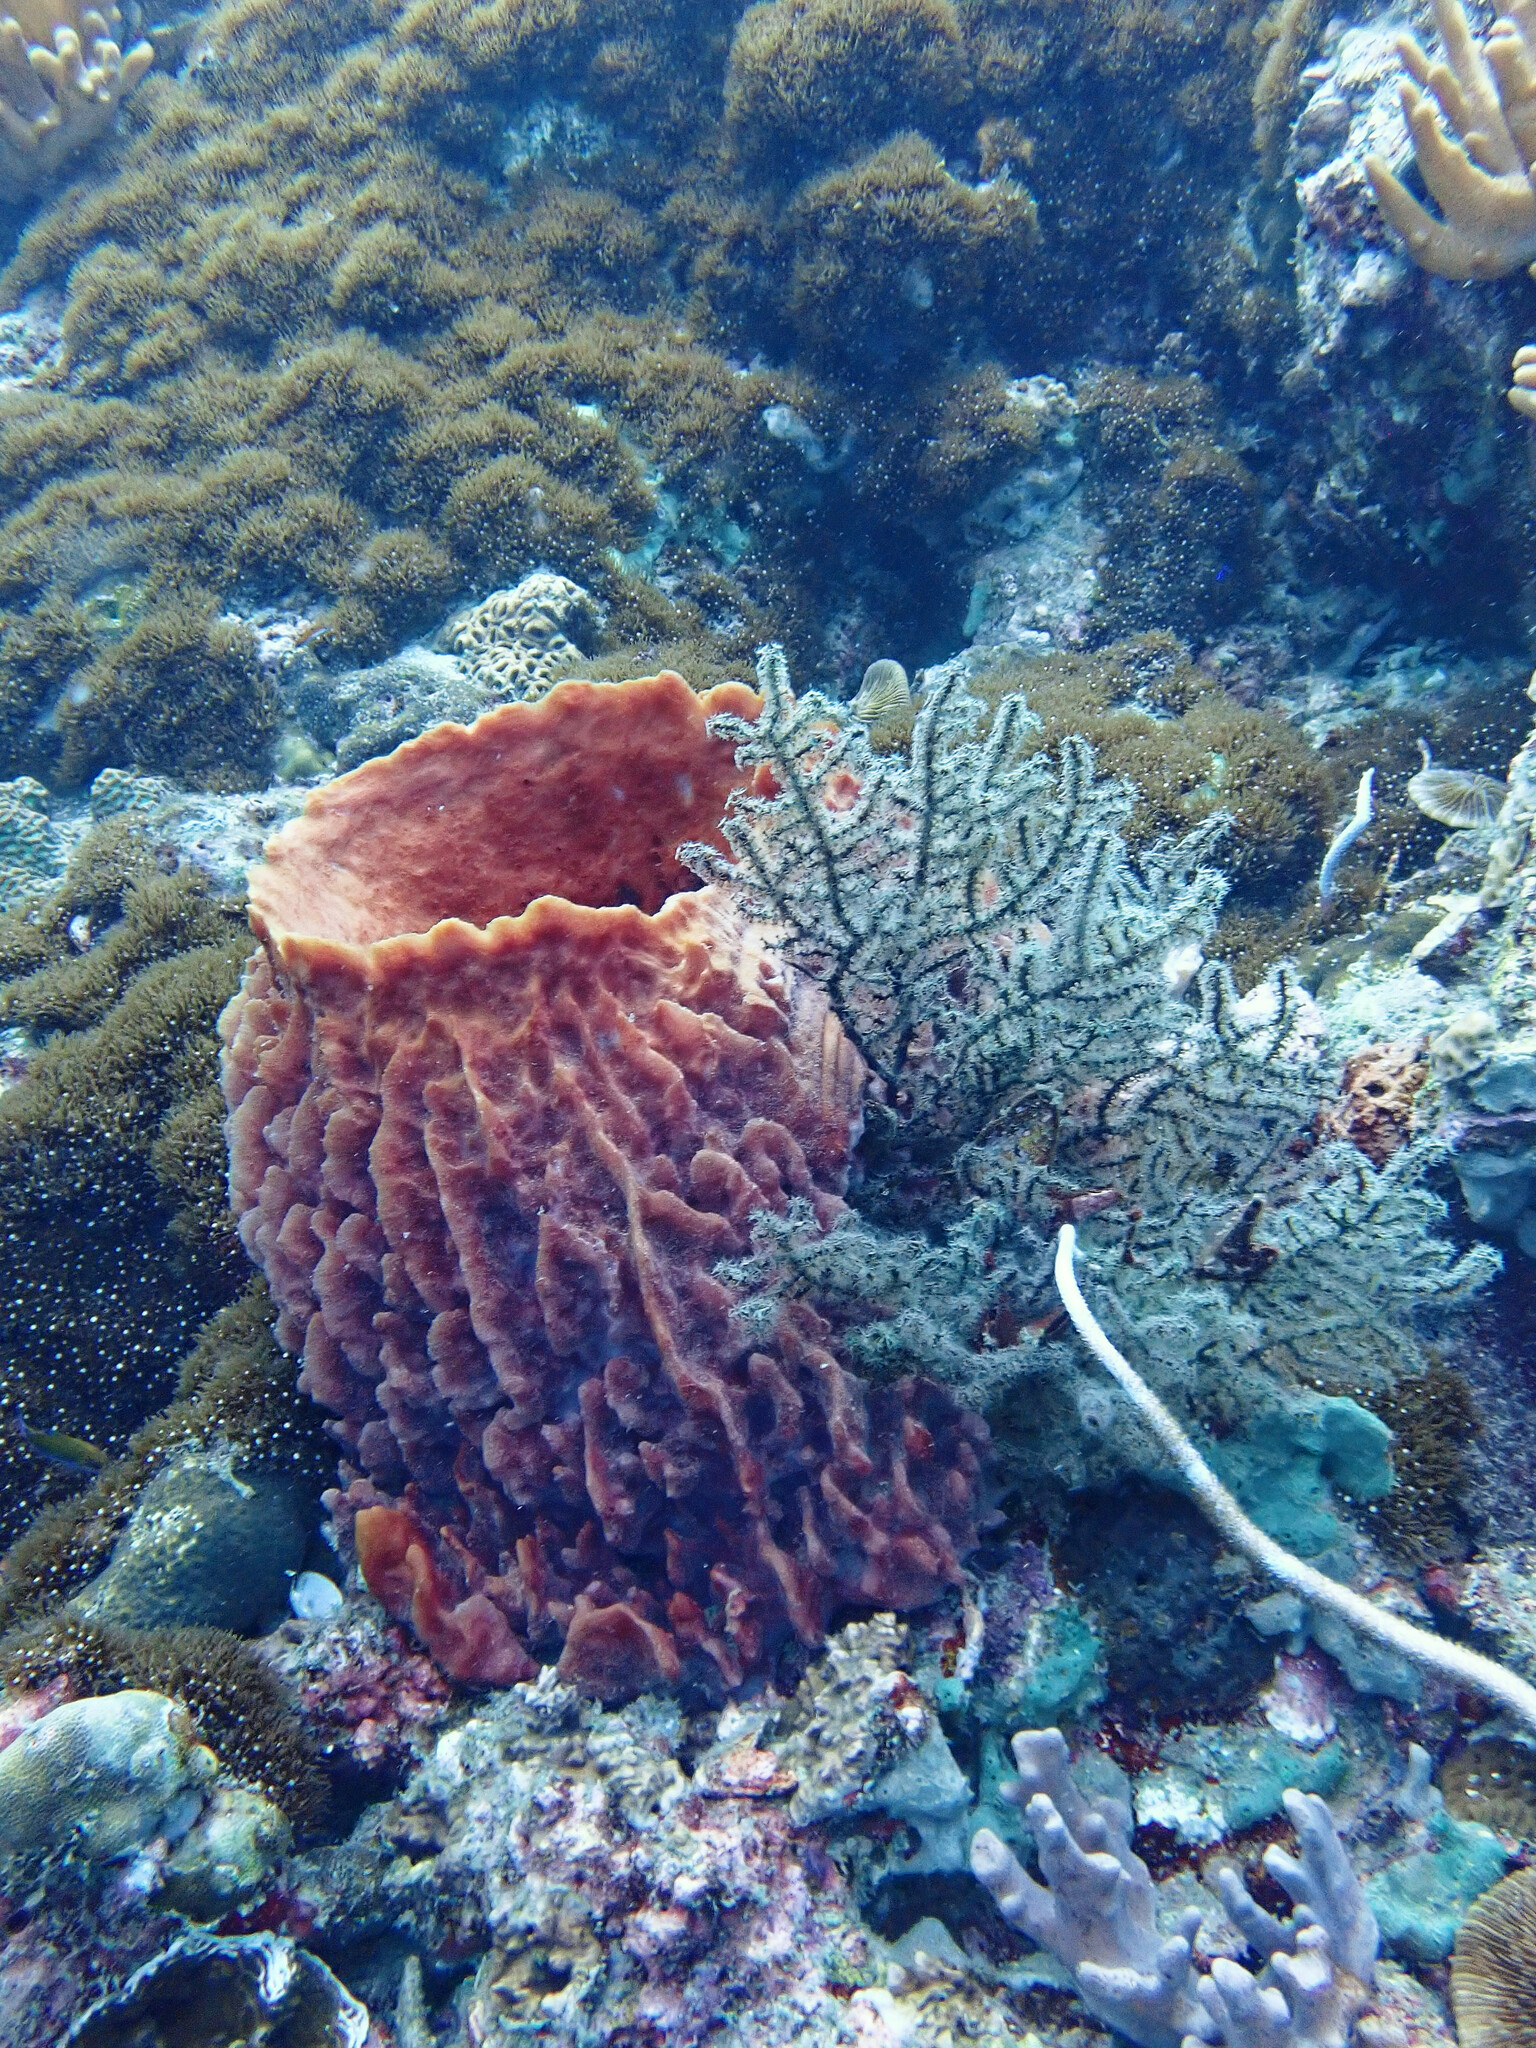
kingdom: Animalia
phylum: Porifera
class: Demospongiae
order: Haplosclerida
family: Petrosiidae
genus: Xestospongia
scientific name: Xestospongia testudinaria
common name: Barrel sponge
